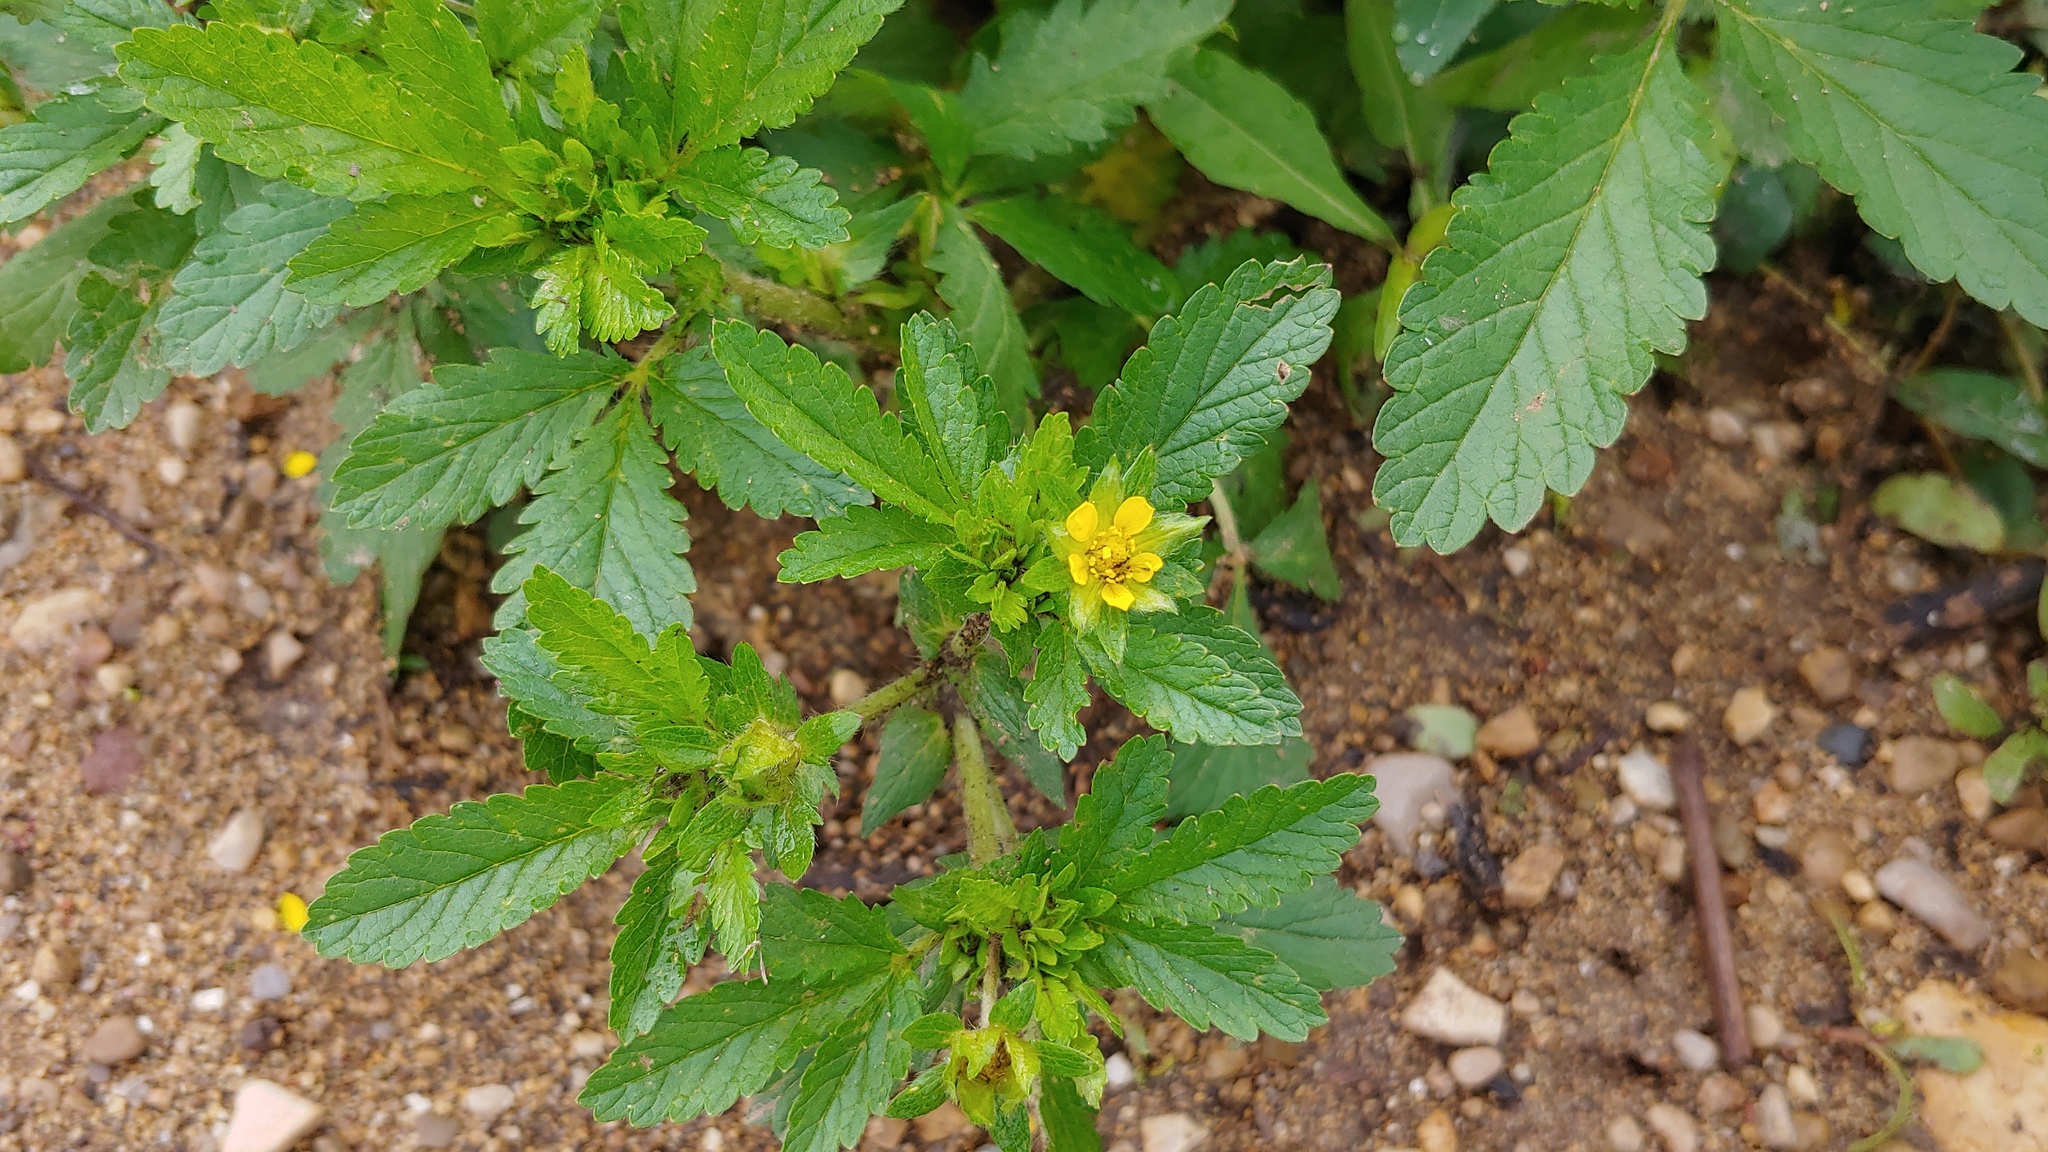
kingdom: Plantae
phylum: Tracheophyta
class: Magnoliopsida
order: Rosales
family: Rosaceae
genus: Potentilla
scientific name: Potentilla norvegica
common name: Ternate-leaved cinquefoil
